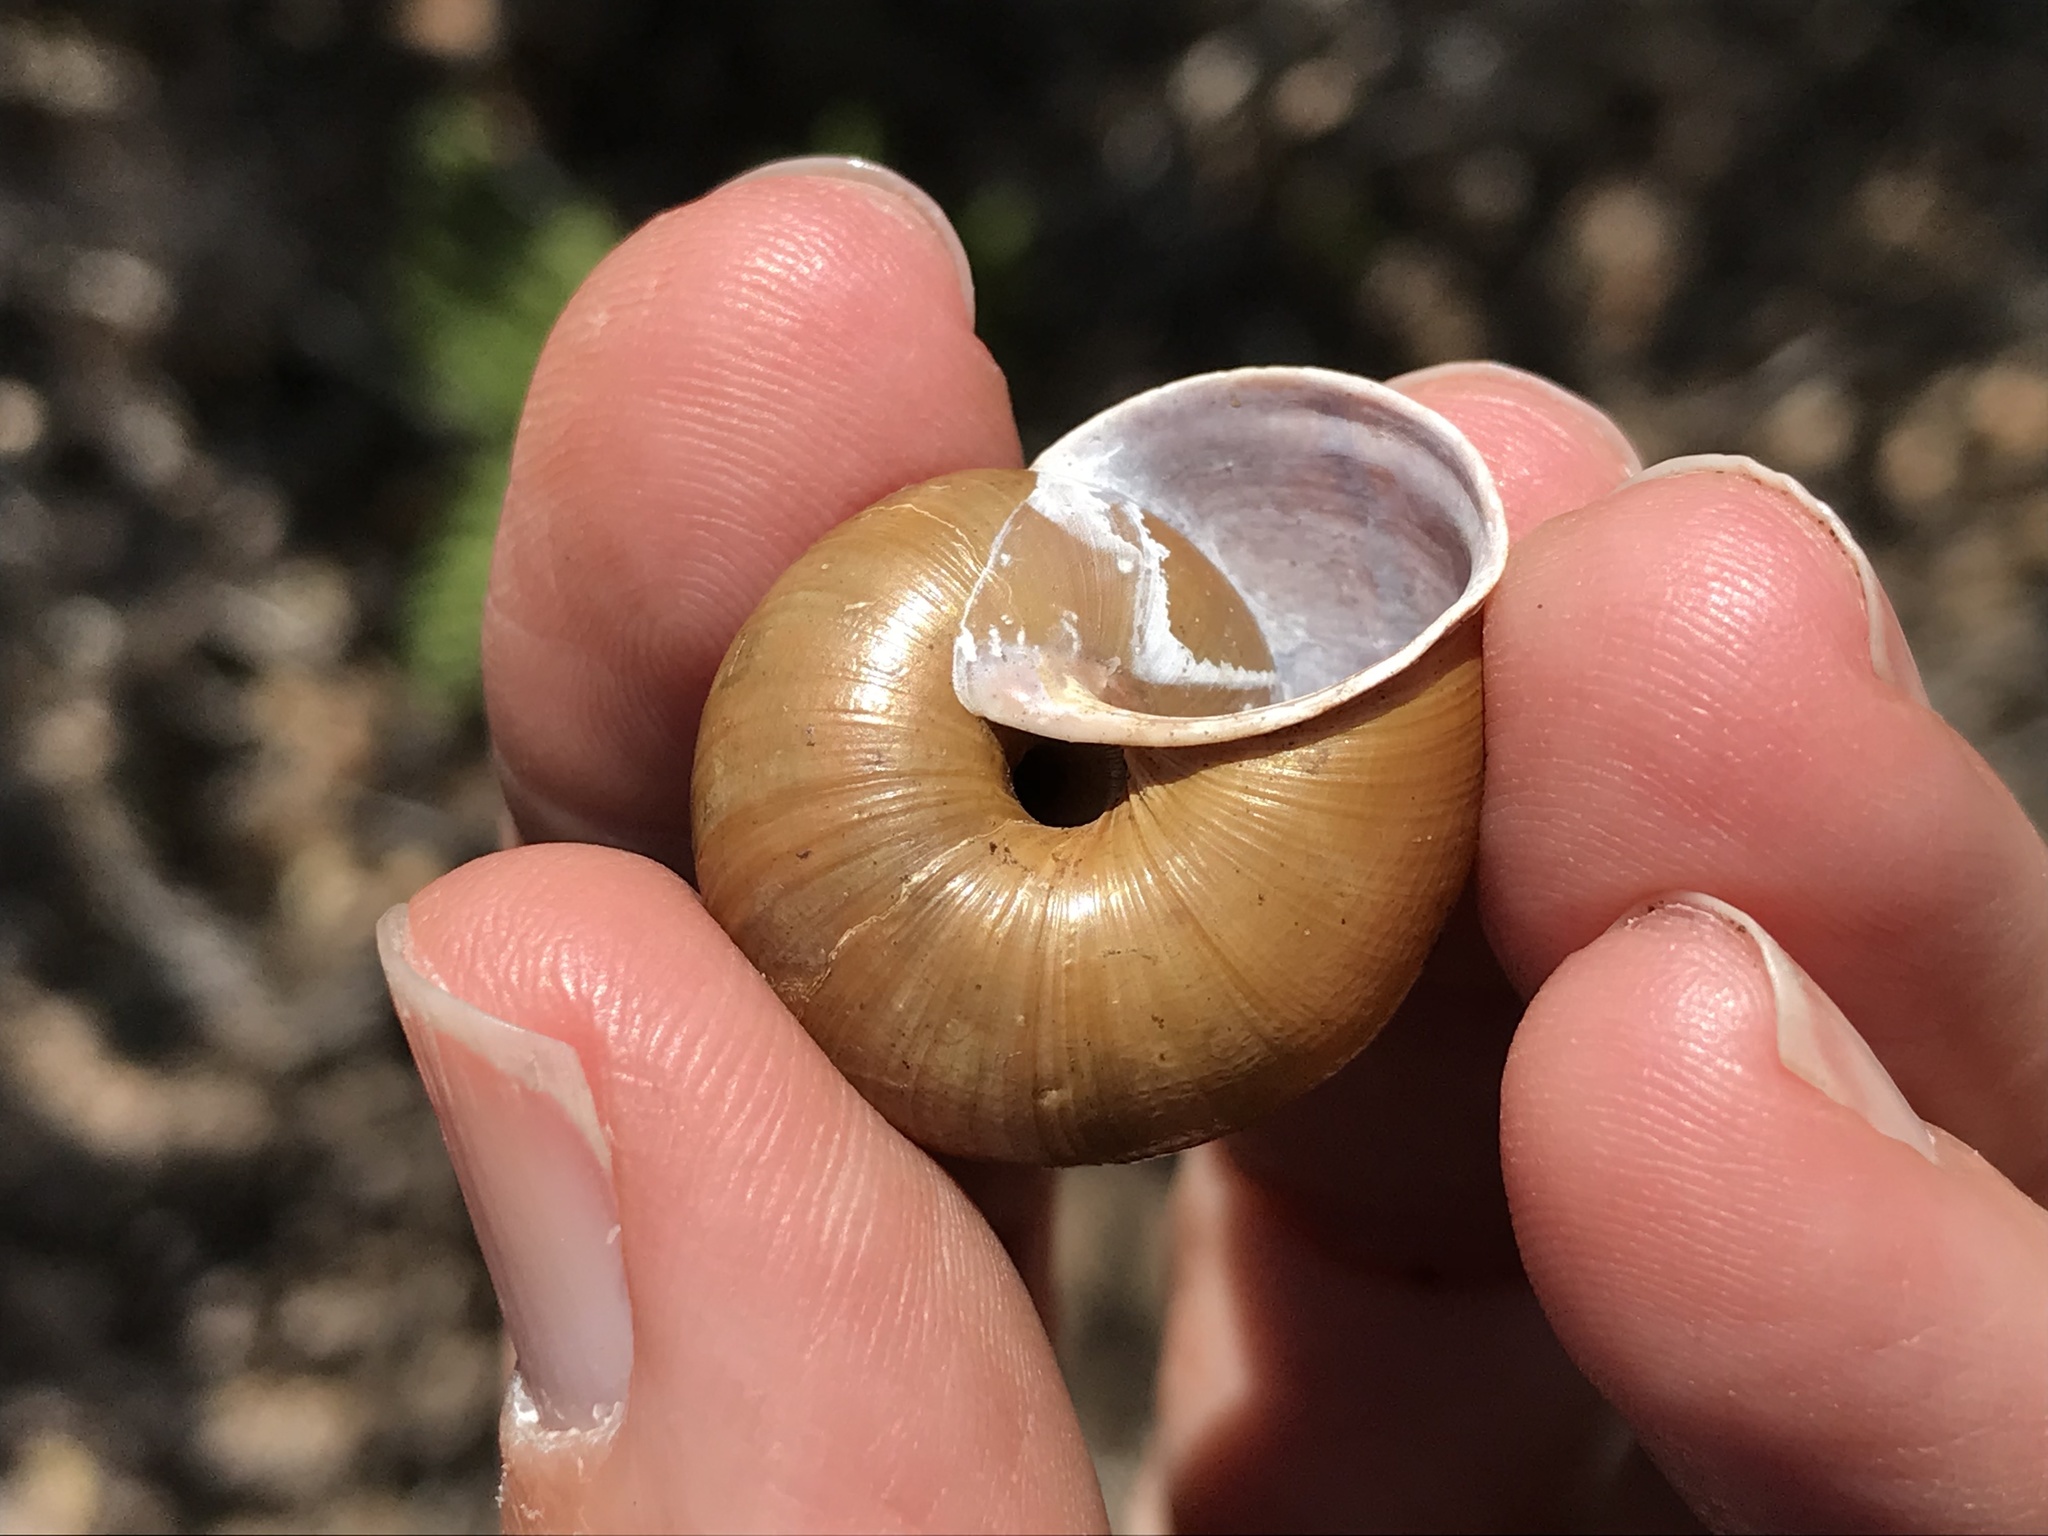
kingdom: Animalia
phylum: Mollusca
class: Gastropoda
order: Stylommatophora
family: Xanthonychidae
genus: Helminthoglypta
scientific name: Helminthoglypta umbilicata
